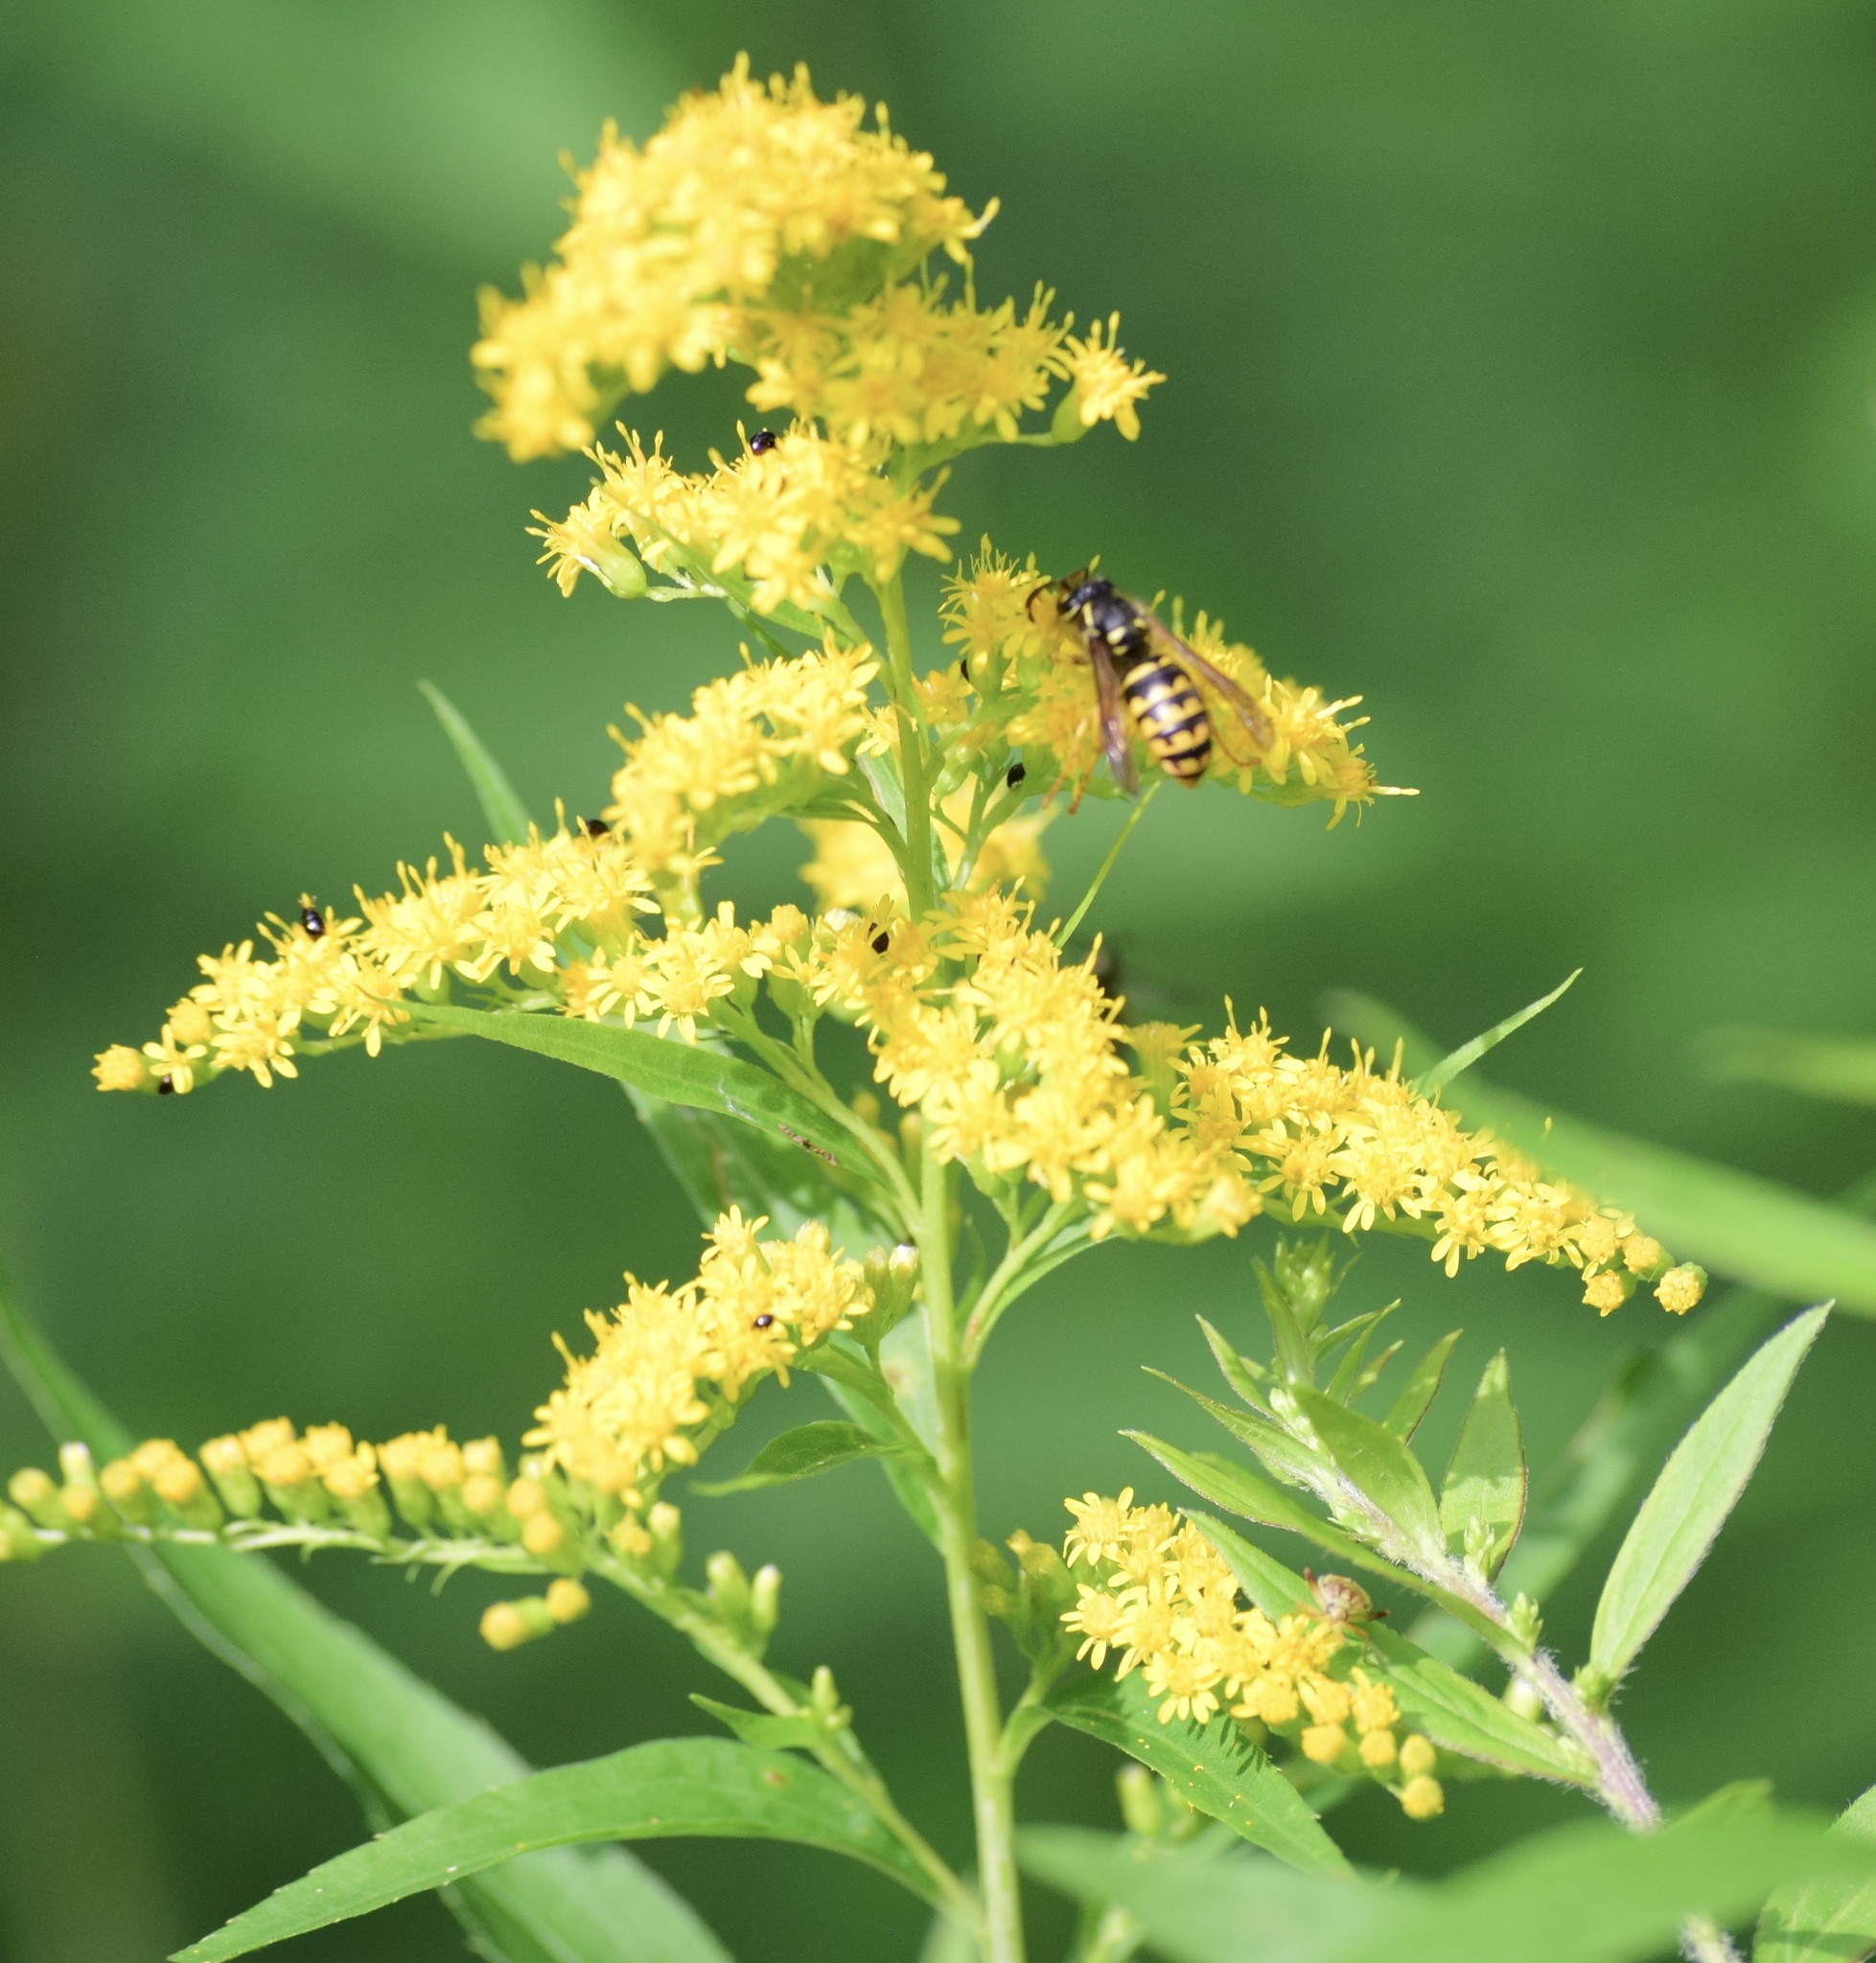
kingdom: Animalia
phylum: Arthropoda
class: Insecta
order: Hymenoptera
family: Vespidae
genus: Dolichovespula
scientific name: Dolichovespula arenaria
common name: Aerial yellowjacket
